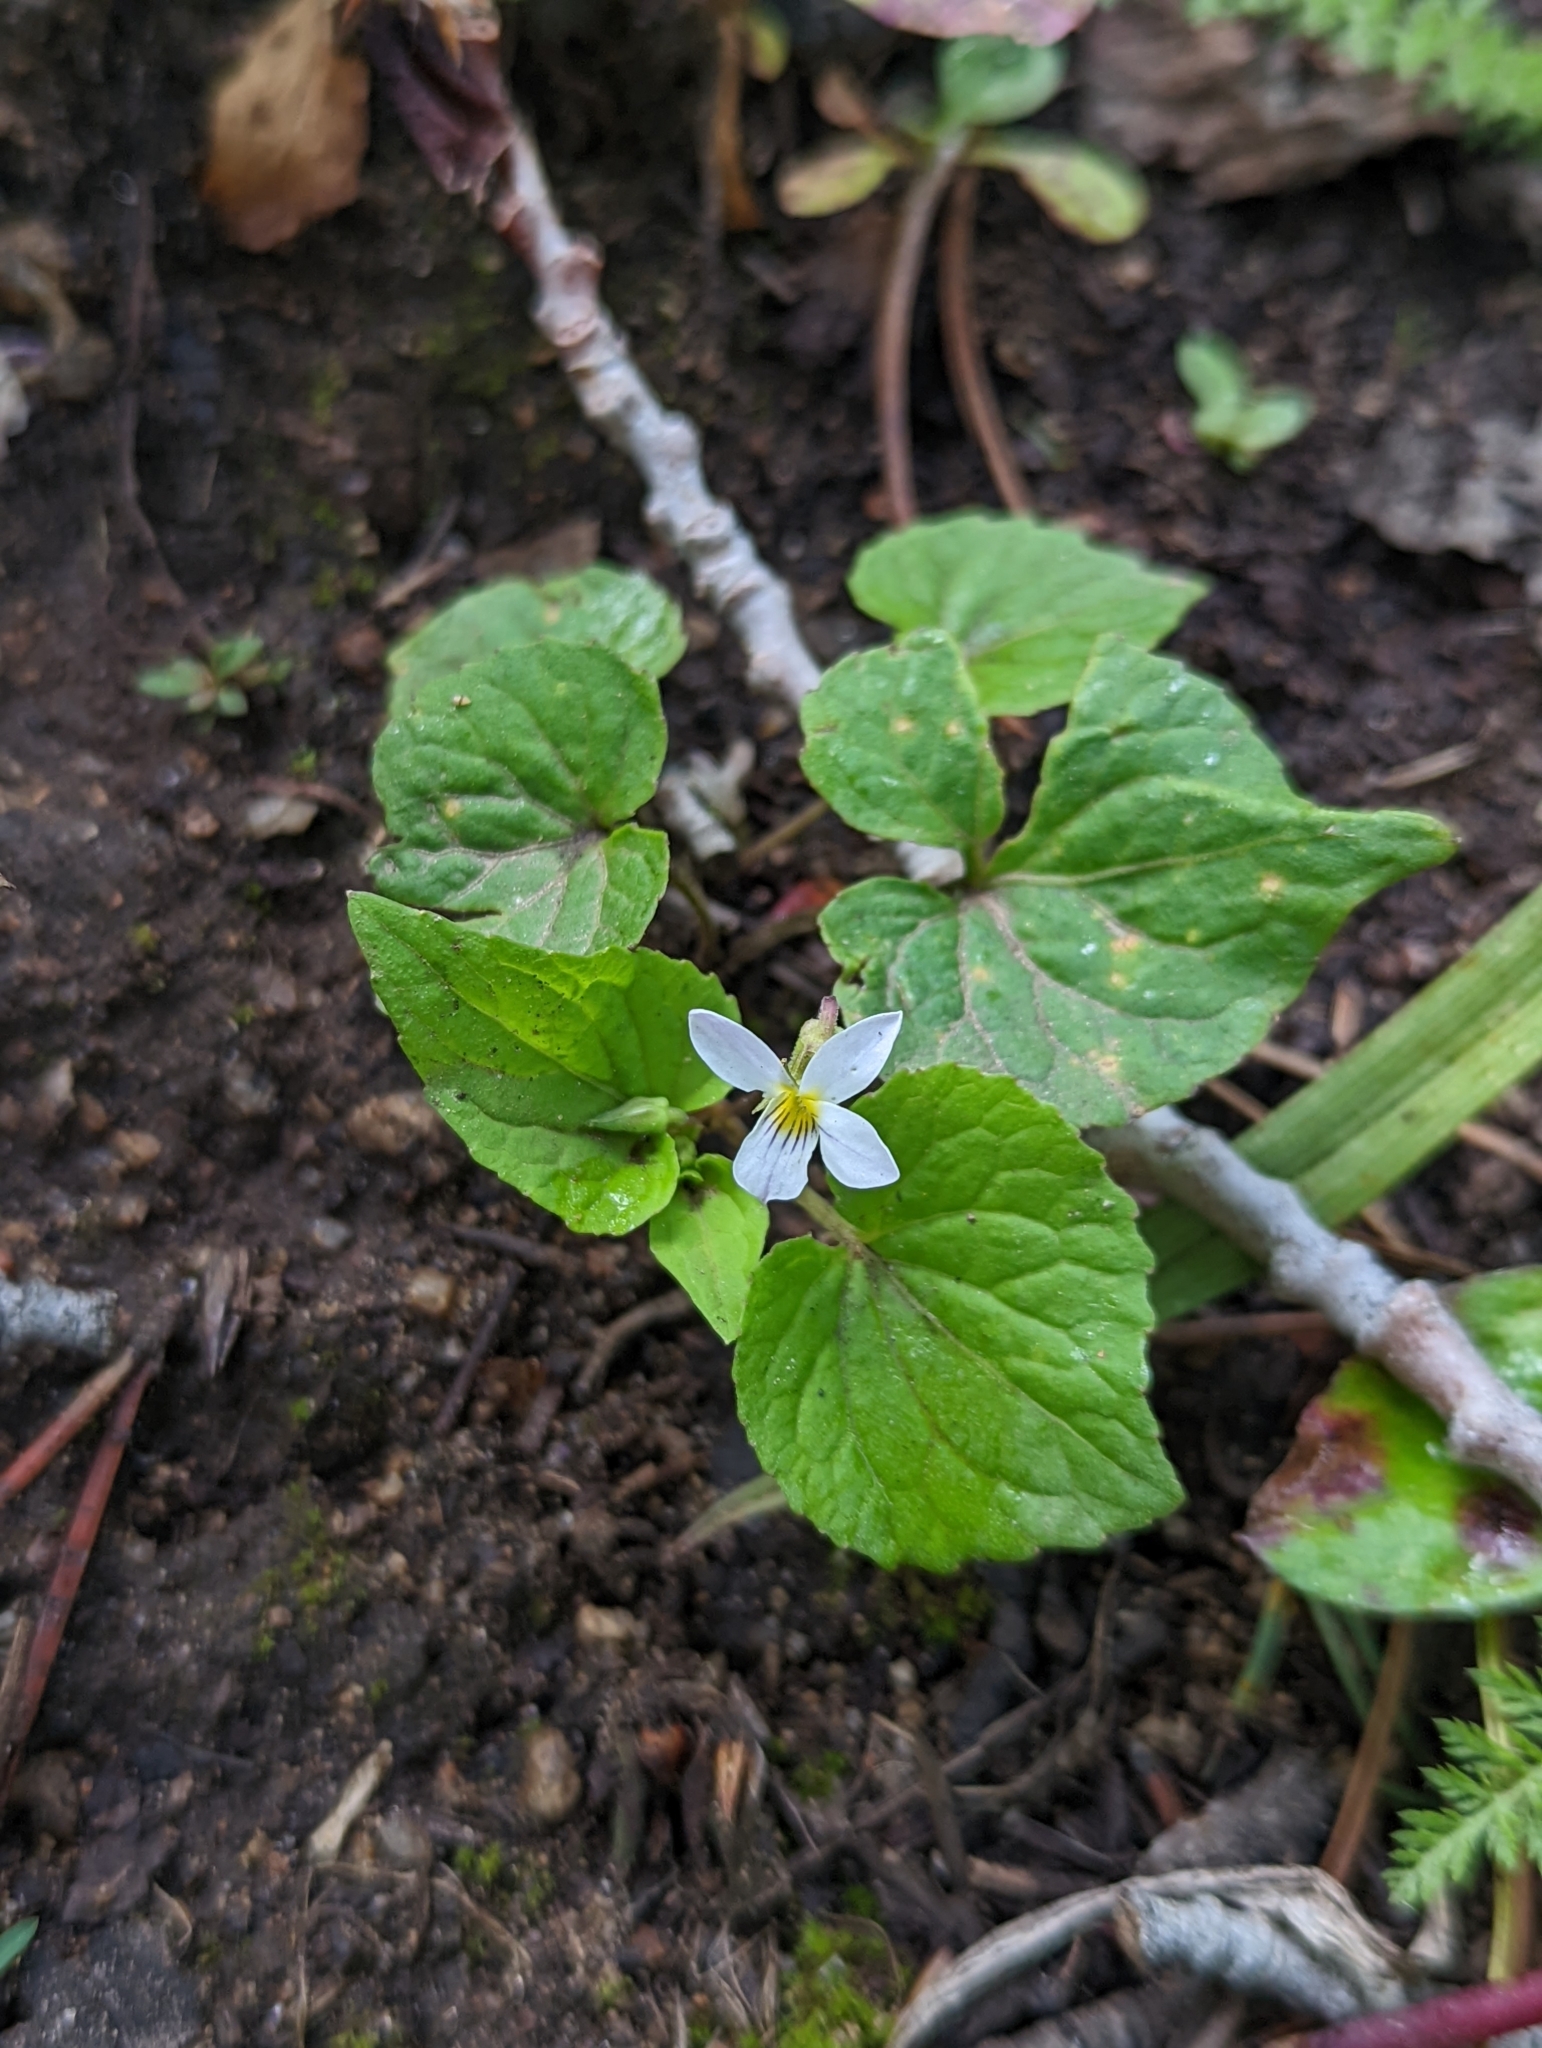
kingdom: Plantae
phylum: Tracheophyta
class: Magnoliopsida
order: Malpighiales
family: Violaceae
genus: Viola
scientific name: Viola canadensis
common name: Canada violet
